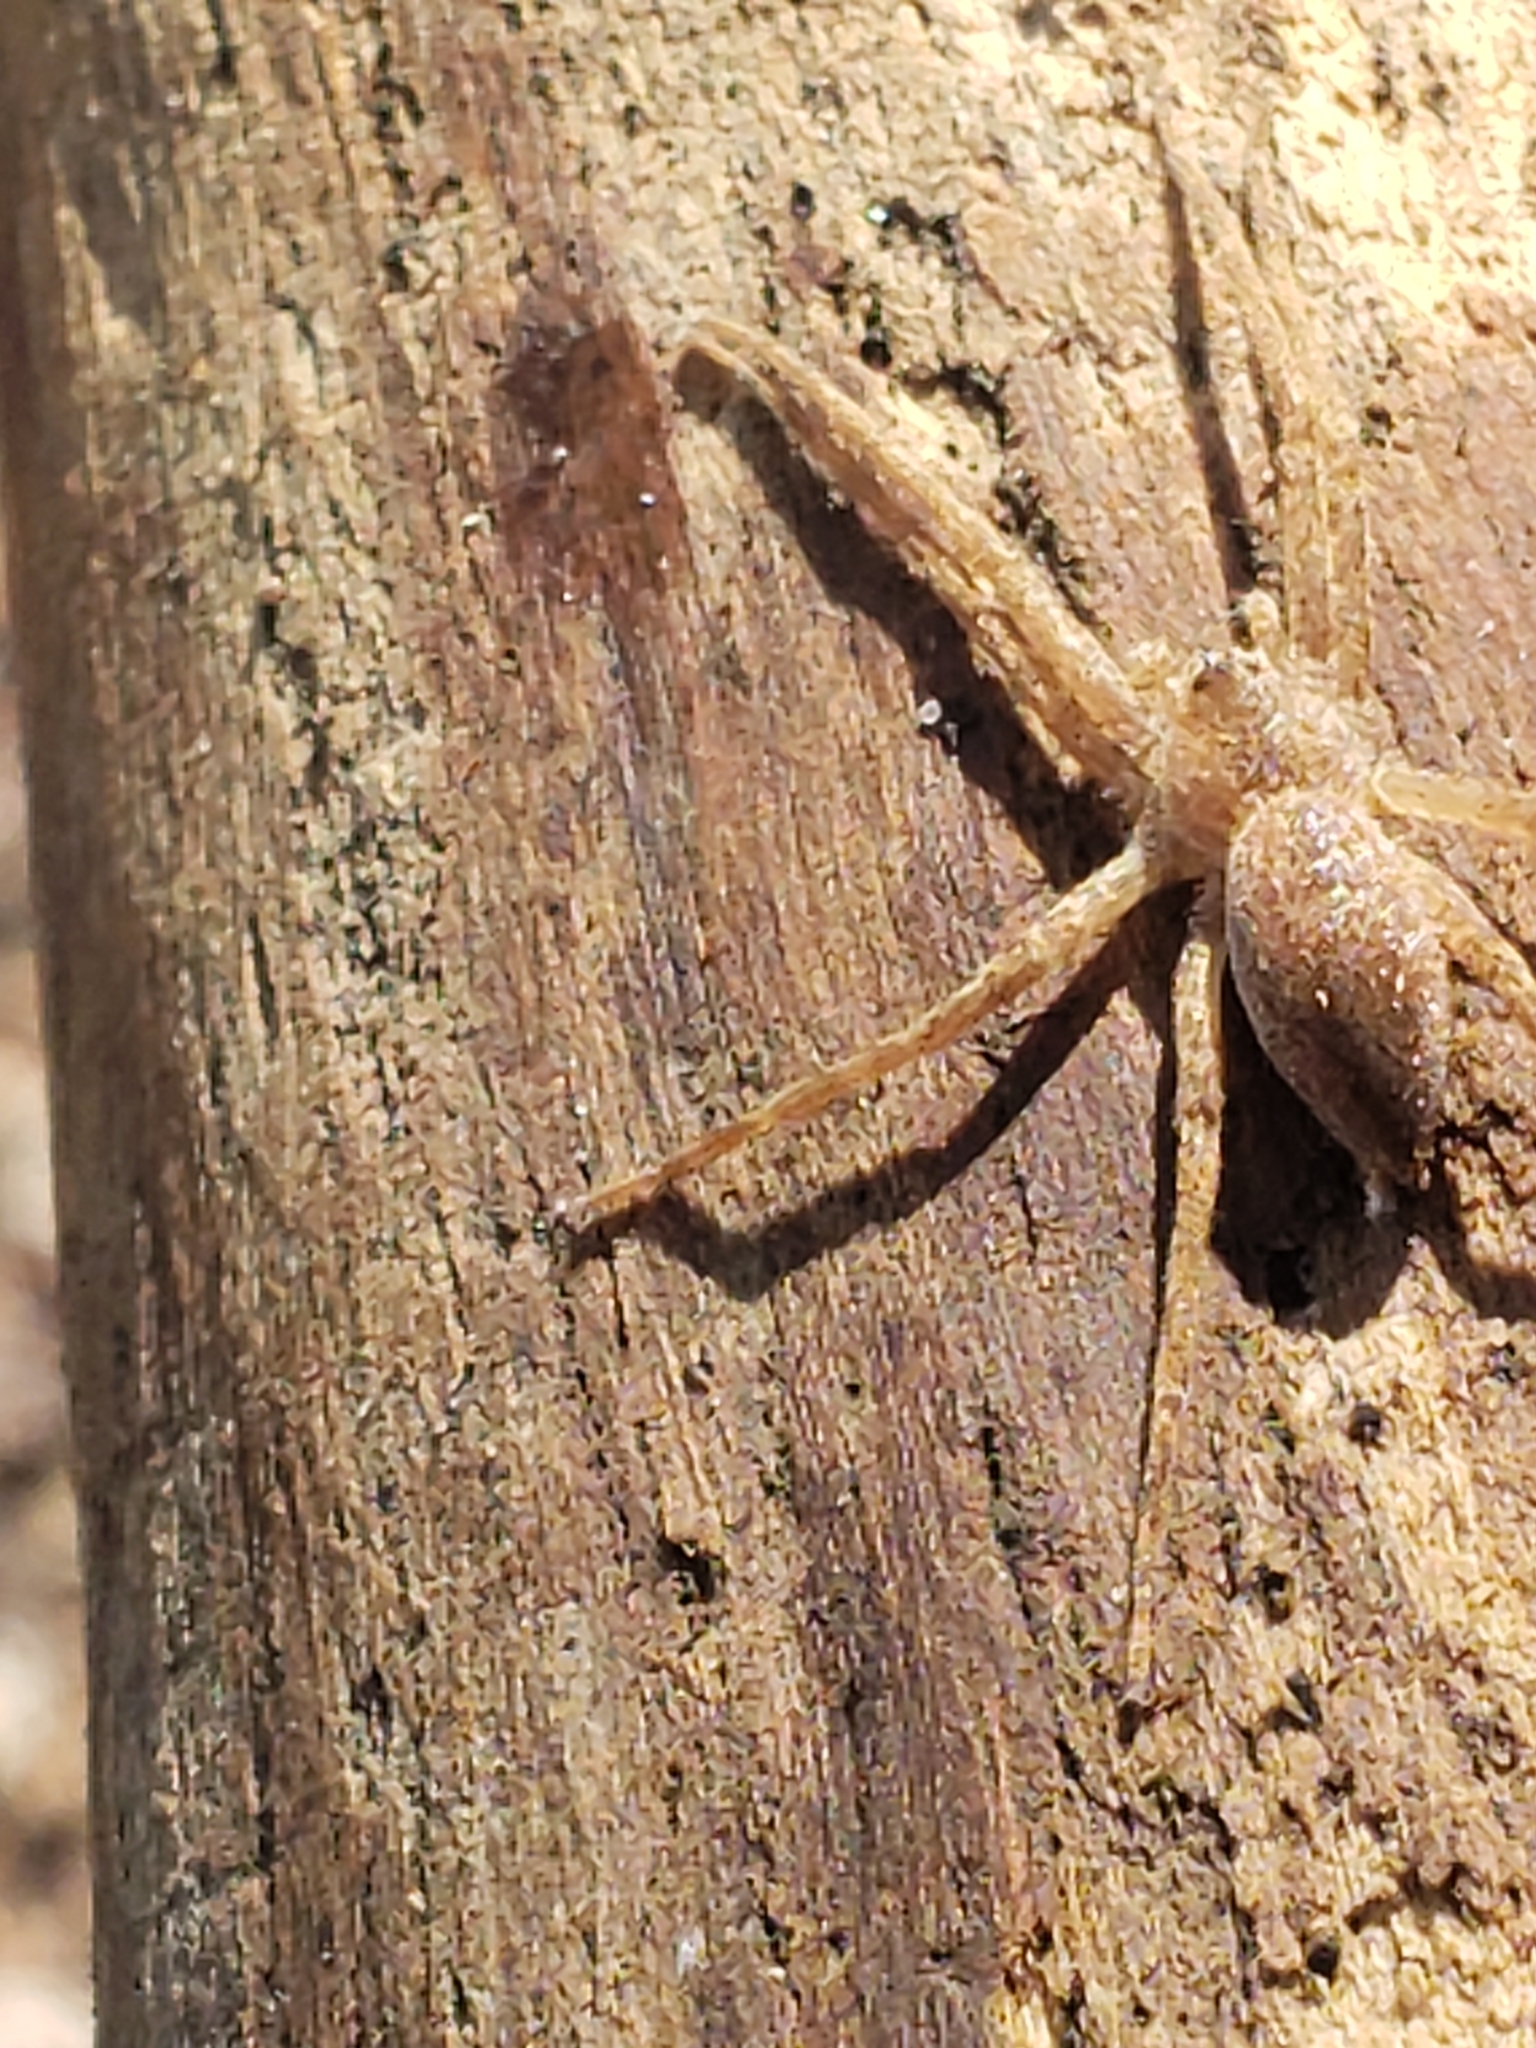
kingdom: Animalia
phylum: Arthropoda
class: Arachnida
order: Araneae
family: Pisauridae
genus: Pisaurina
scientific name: Pisaurina mira
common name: American nursery web spider
